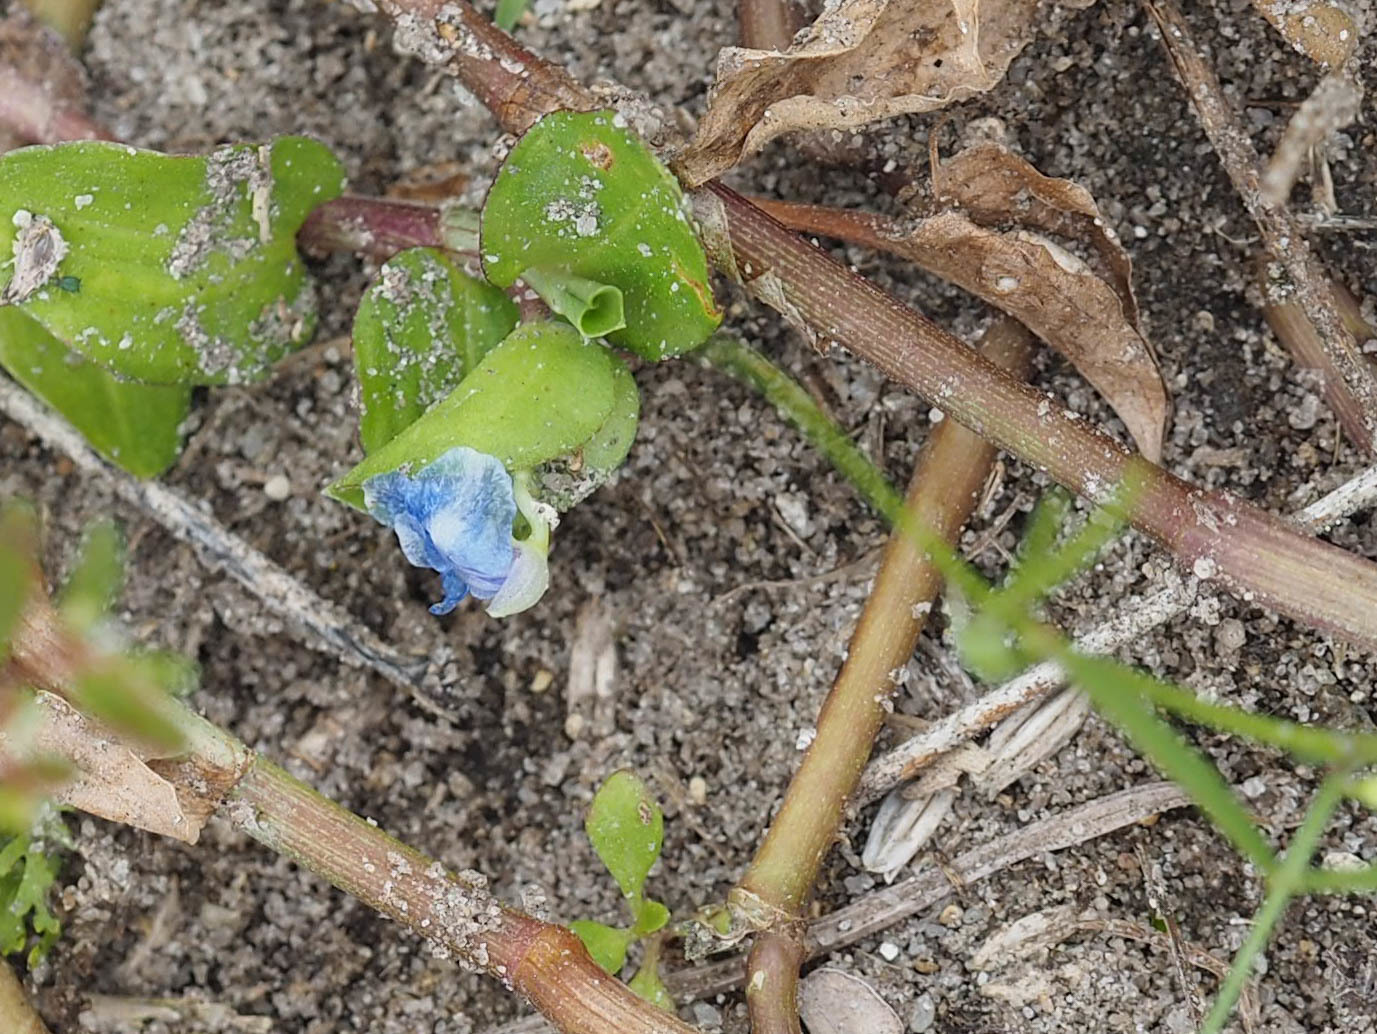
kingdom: Plantae
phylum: Tracheophyta
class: Liliopsida
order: Commelinales
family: Commelinaceae
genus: Commelina
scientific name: Commelina diffusa
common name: Climbing dayflower
